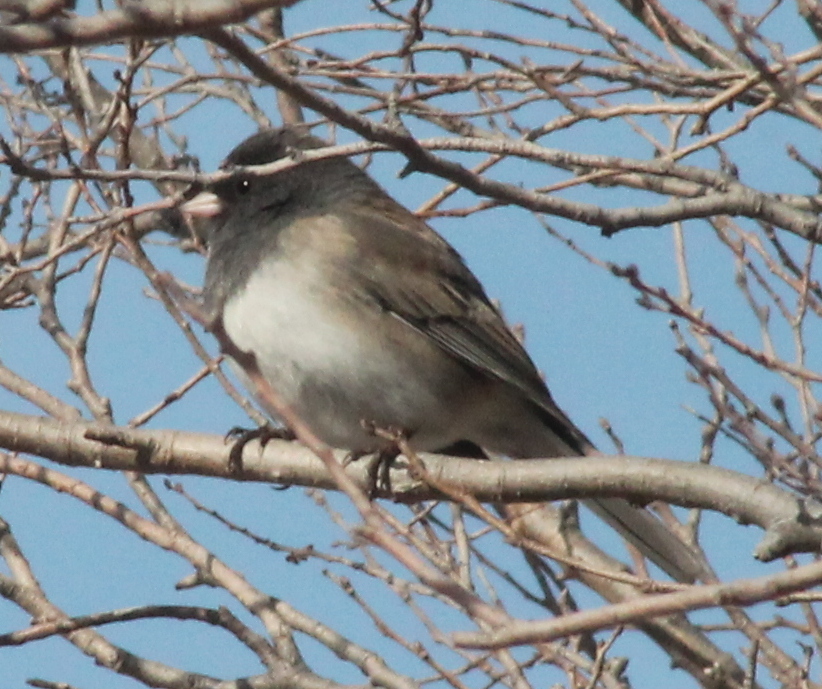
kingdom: Animalia
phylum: Chordata
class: Aves
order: Passeriformes
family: Passerellidae
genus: Junco
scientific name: Junco hyemalis
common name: Dark-eyed junco
